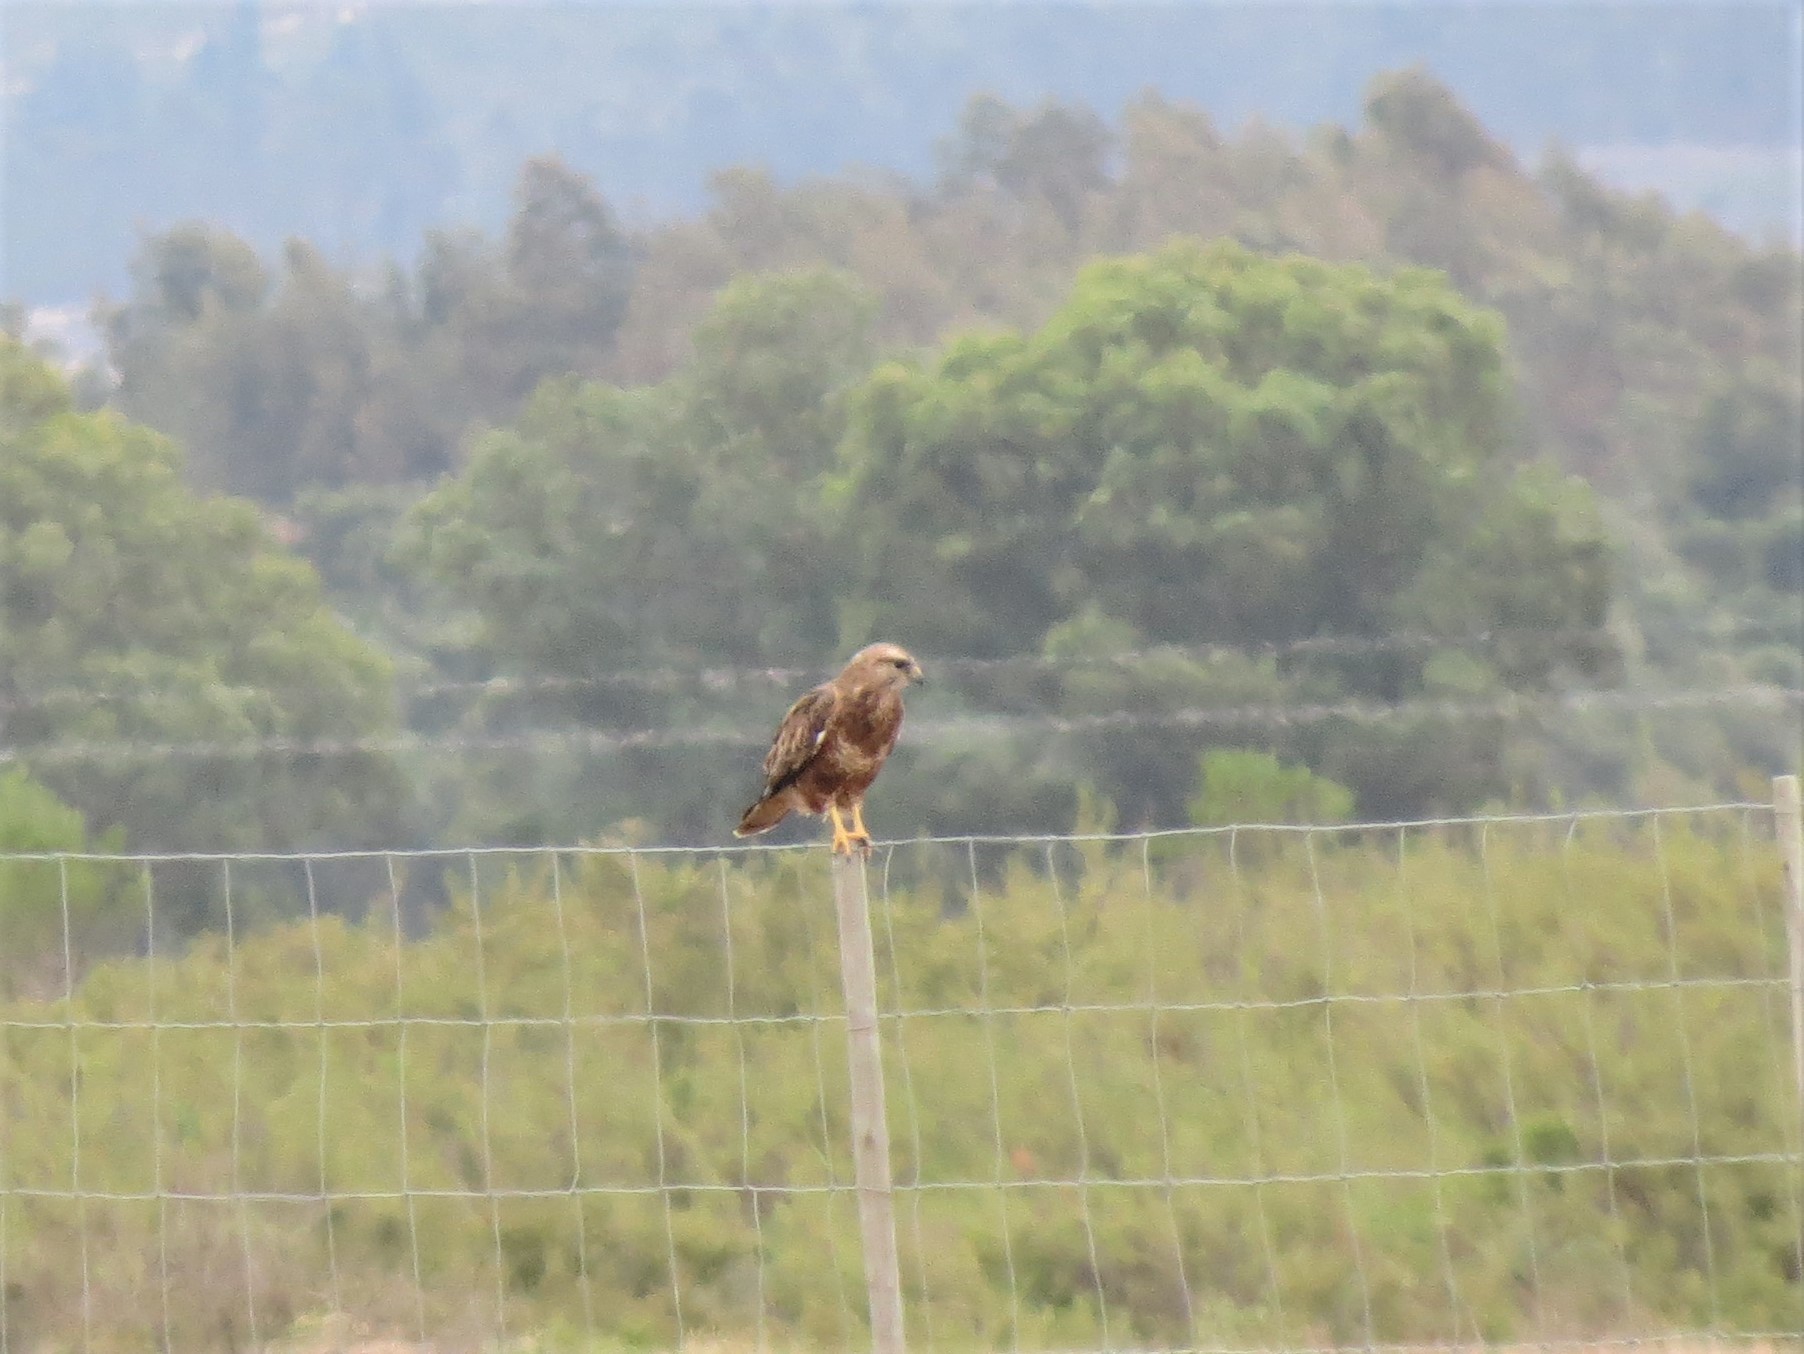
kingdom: Animalia
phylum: Chordata
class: Aves
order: Accipitriformes
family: Accipitridae
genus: Buteo
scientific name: Buteo buteo
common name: Common buzzard
